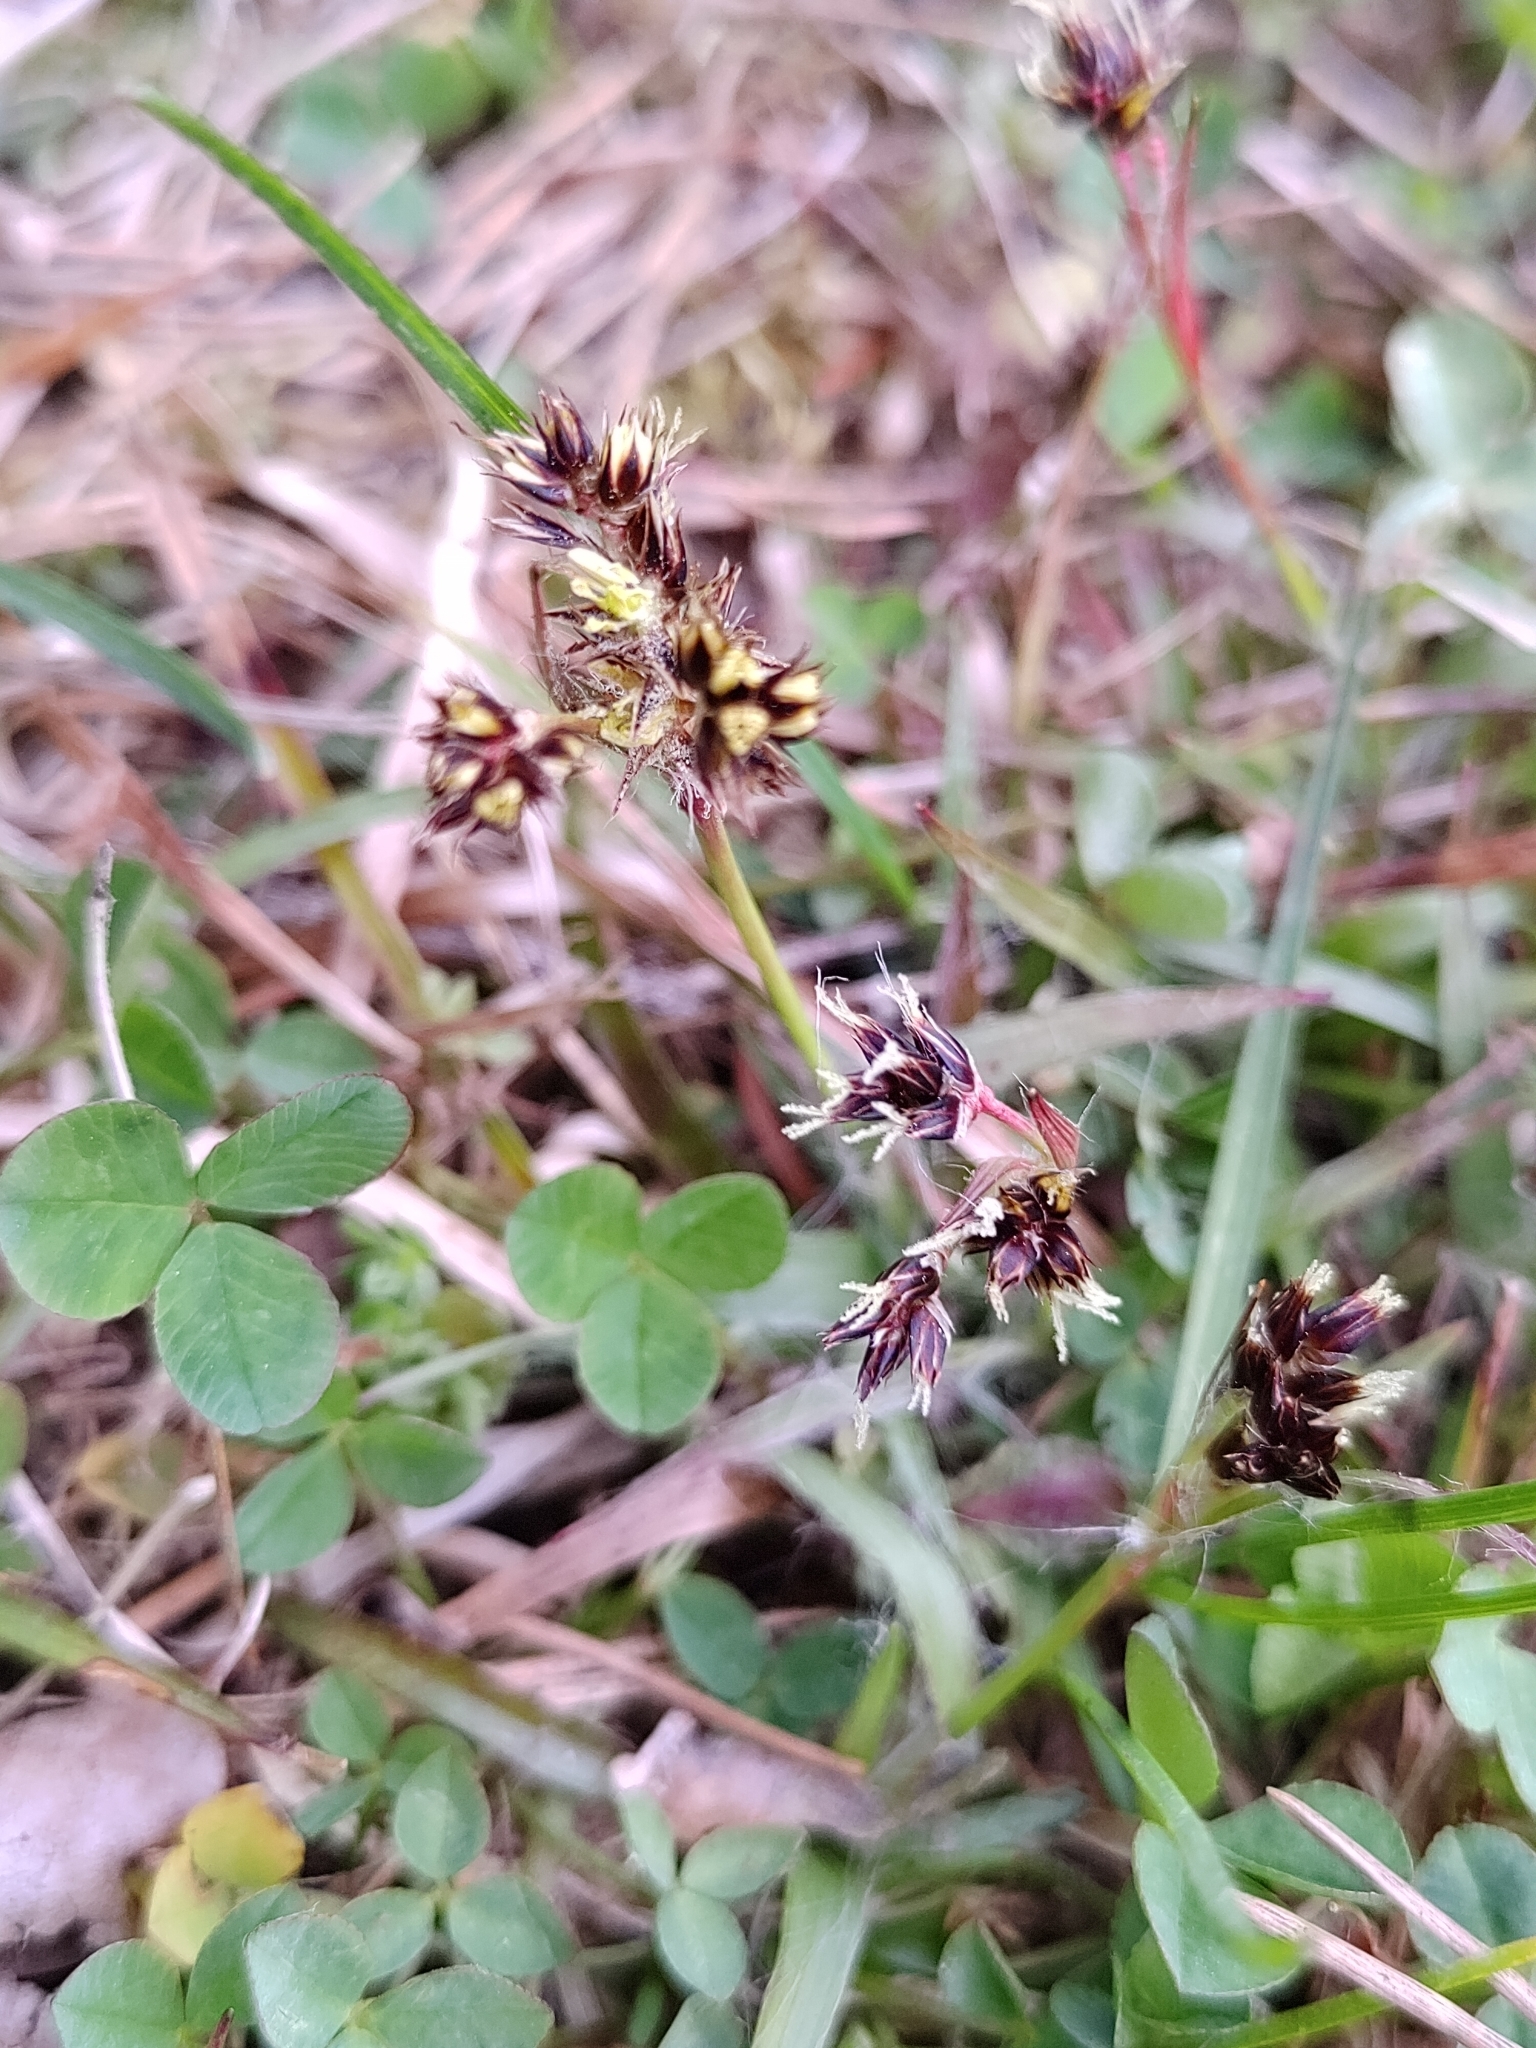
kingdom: Plantae
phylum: Tracheophyta
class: Liliopsida
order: Poales
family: Juncaceae
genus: Luzula
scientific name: Luzula campestris
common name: Field wood-rush
